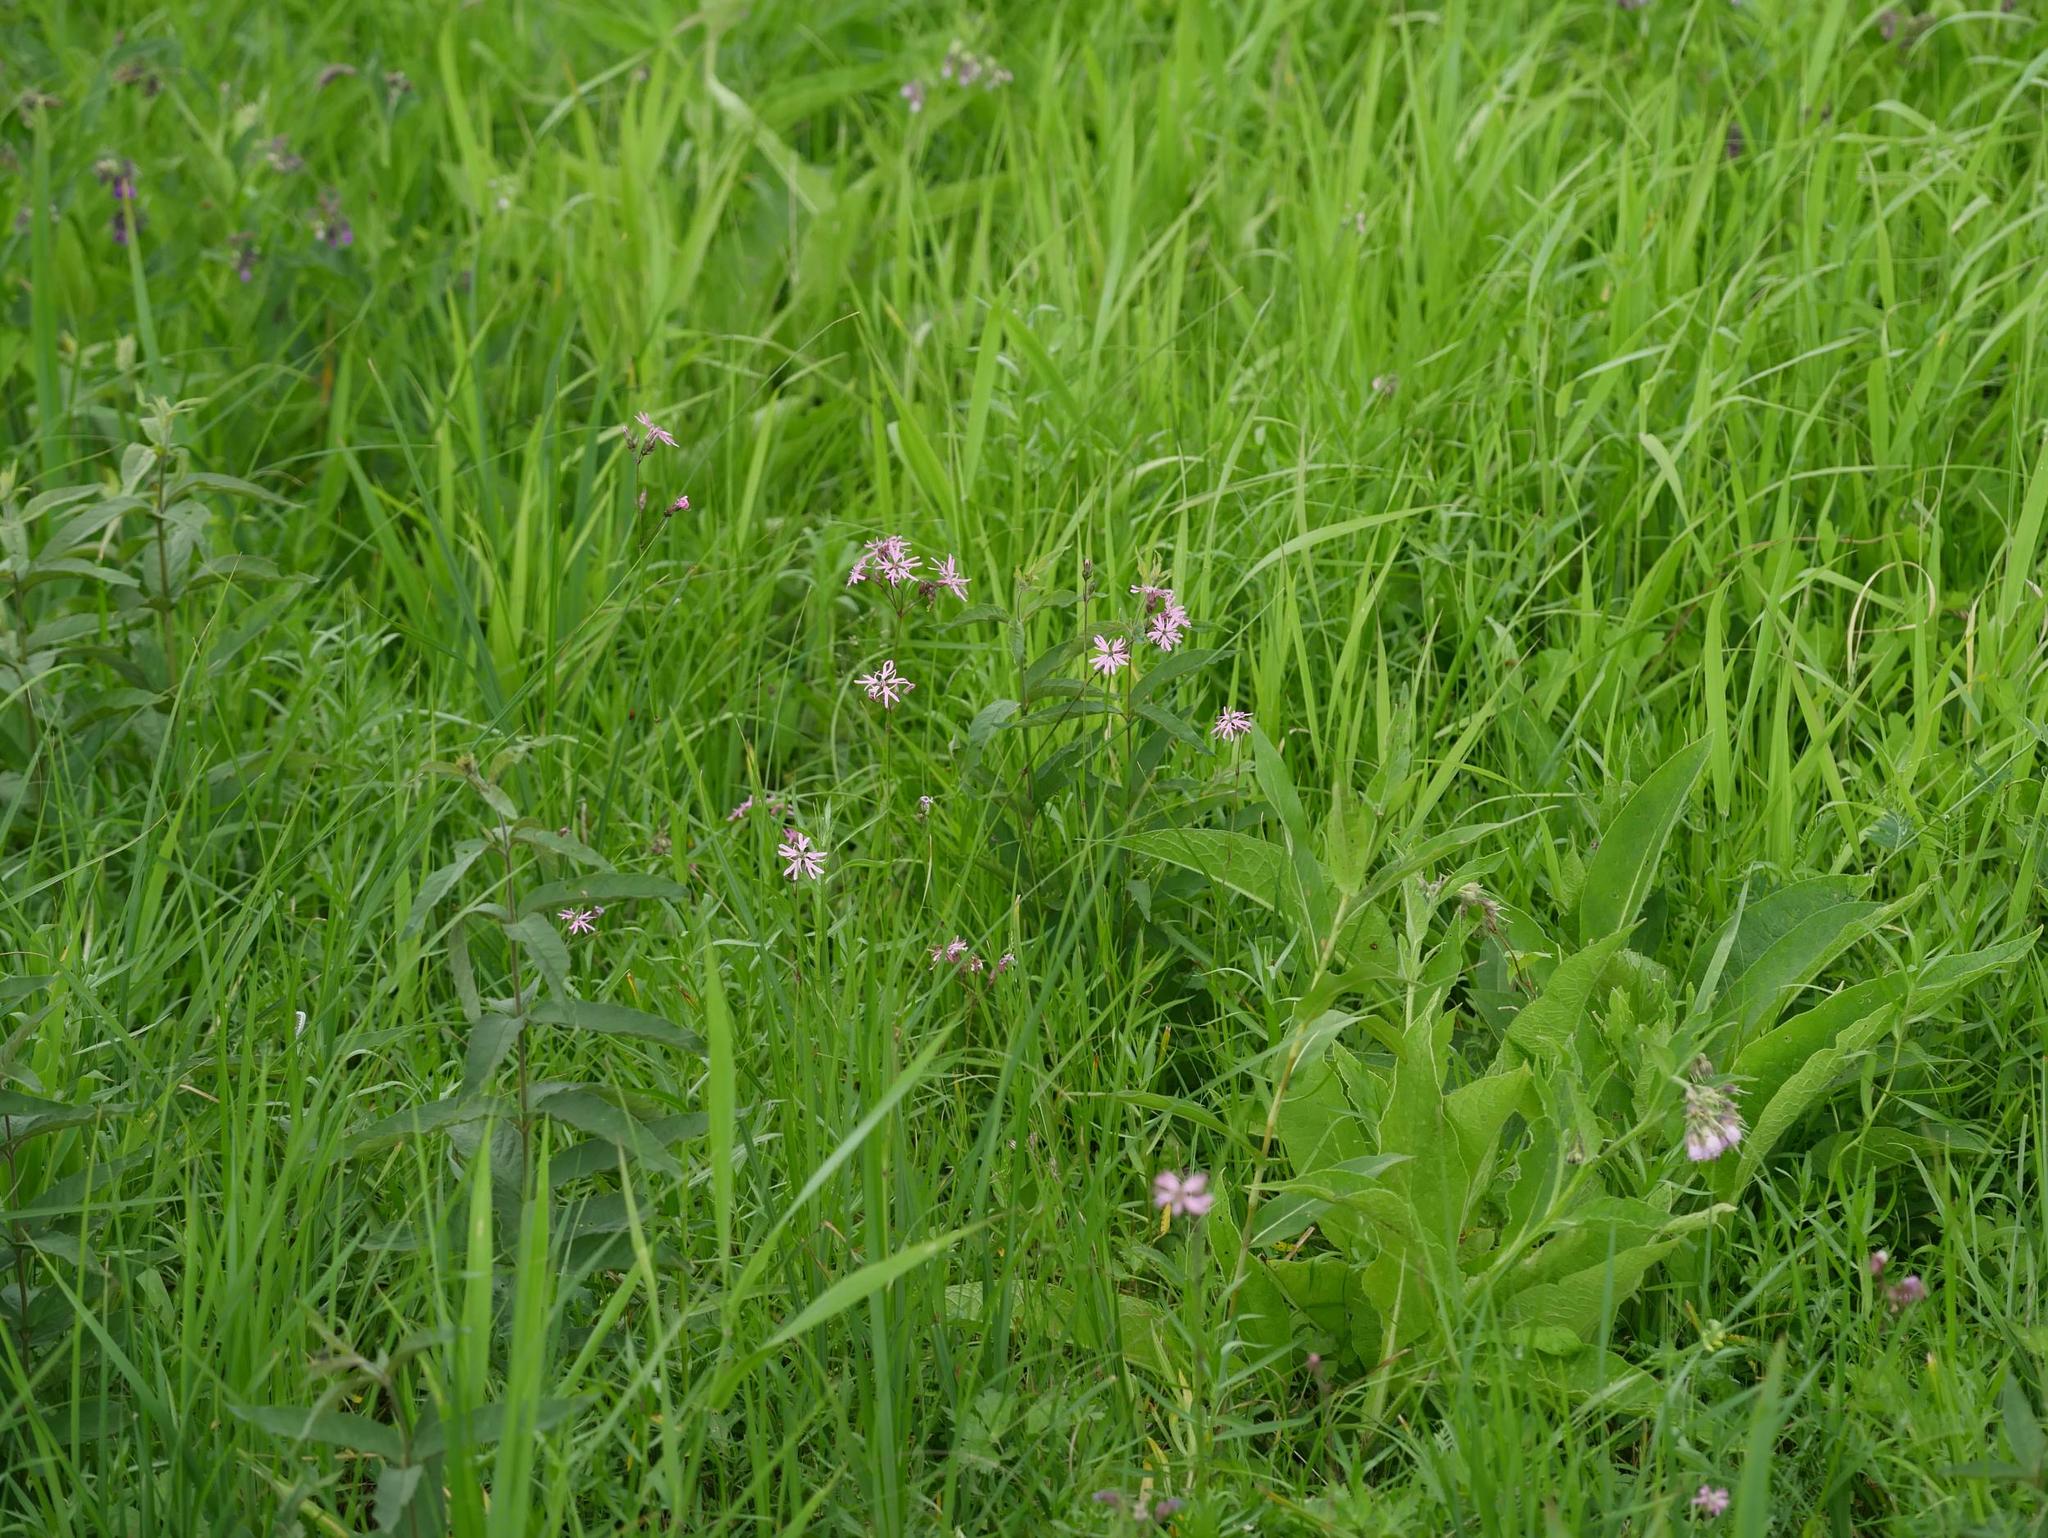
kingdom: Plantae
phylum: Tracheophyta
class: Magnoliopsida
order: Caryophyllales
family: Caryophyllaceae
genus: Silene
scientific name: Silene flos-cuculi
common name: Ragged-robin
